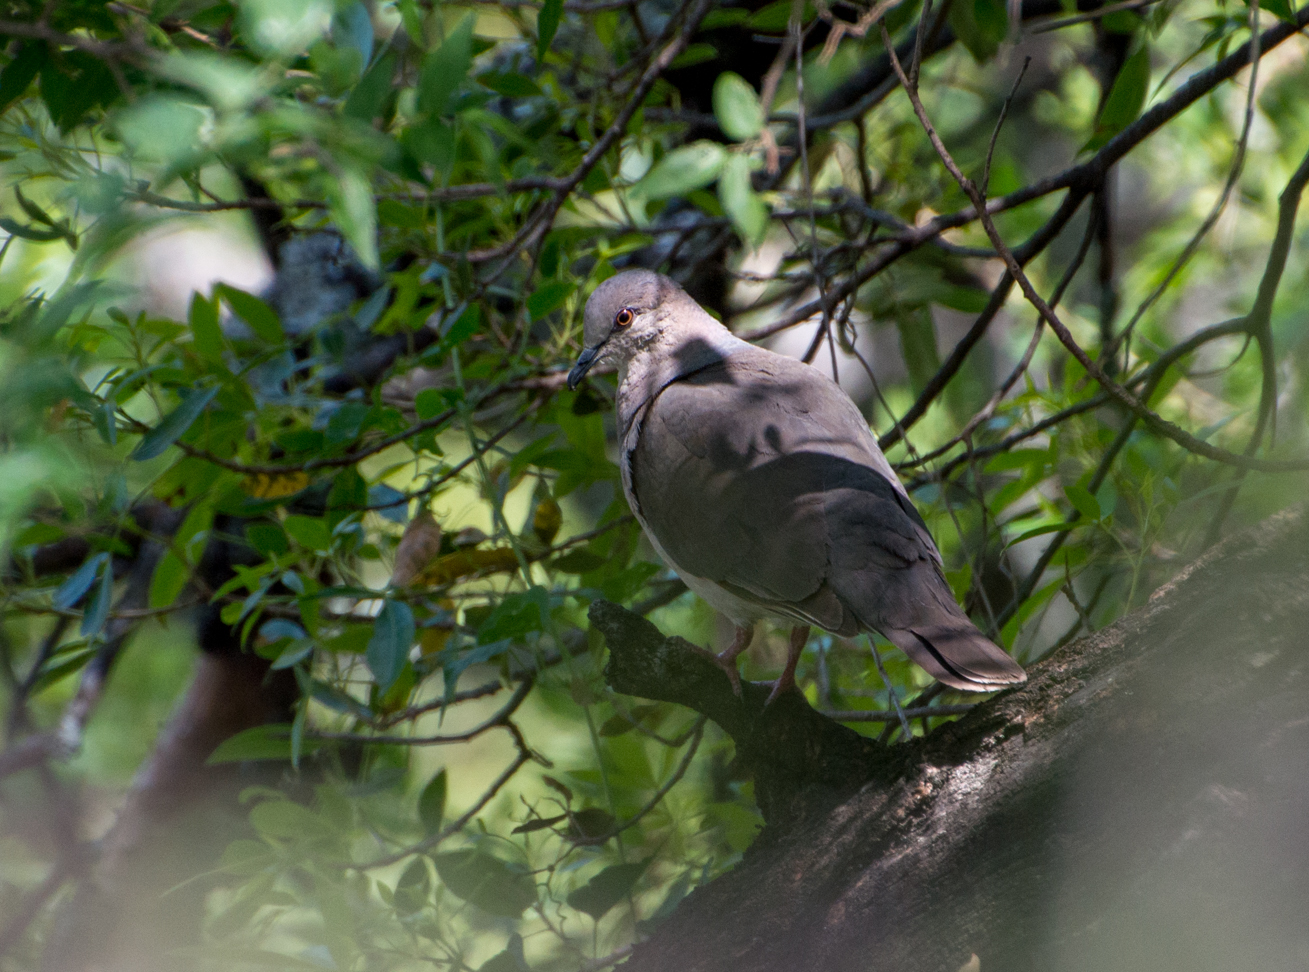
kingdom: Animalia
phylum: Chordata
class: Aves
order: Columbiformes
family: Columbidae
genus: Leptotila
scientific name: Leptotila verreauxi
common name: White-tipped dove
